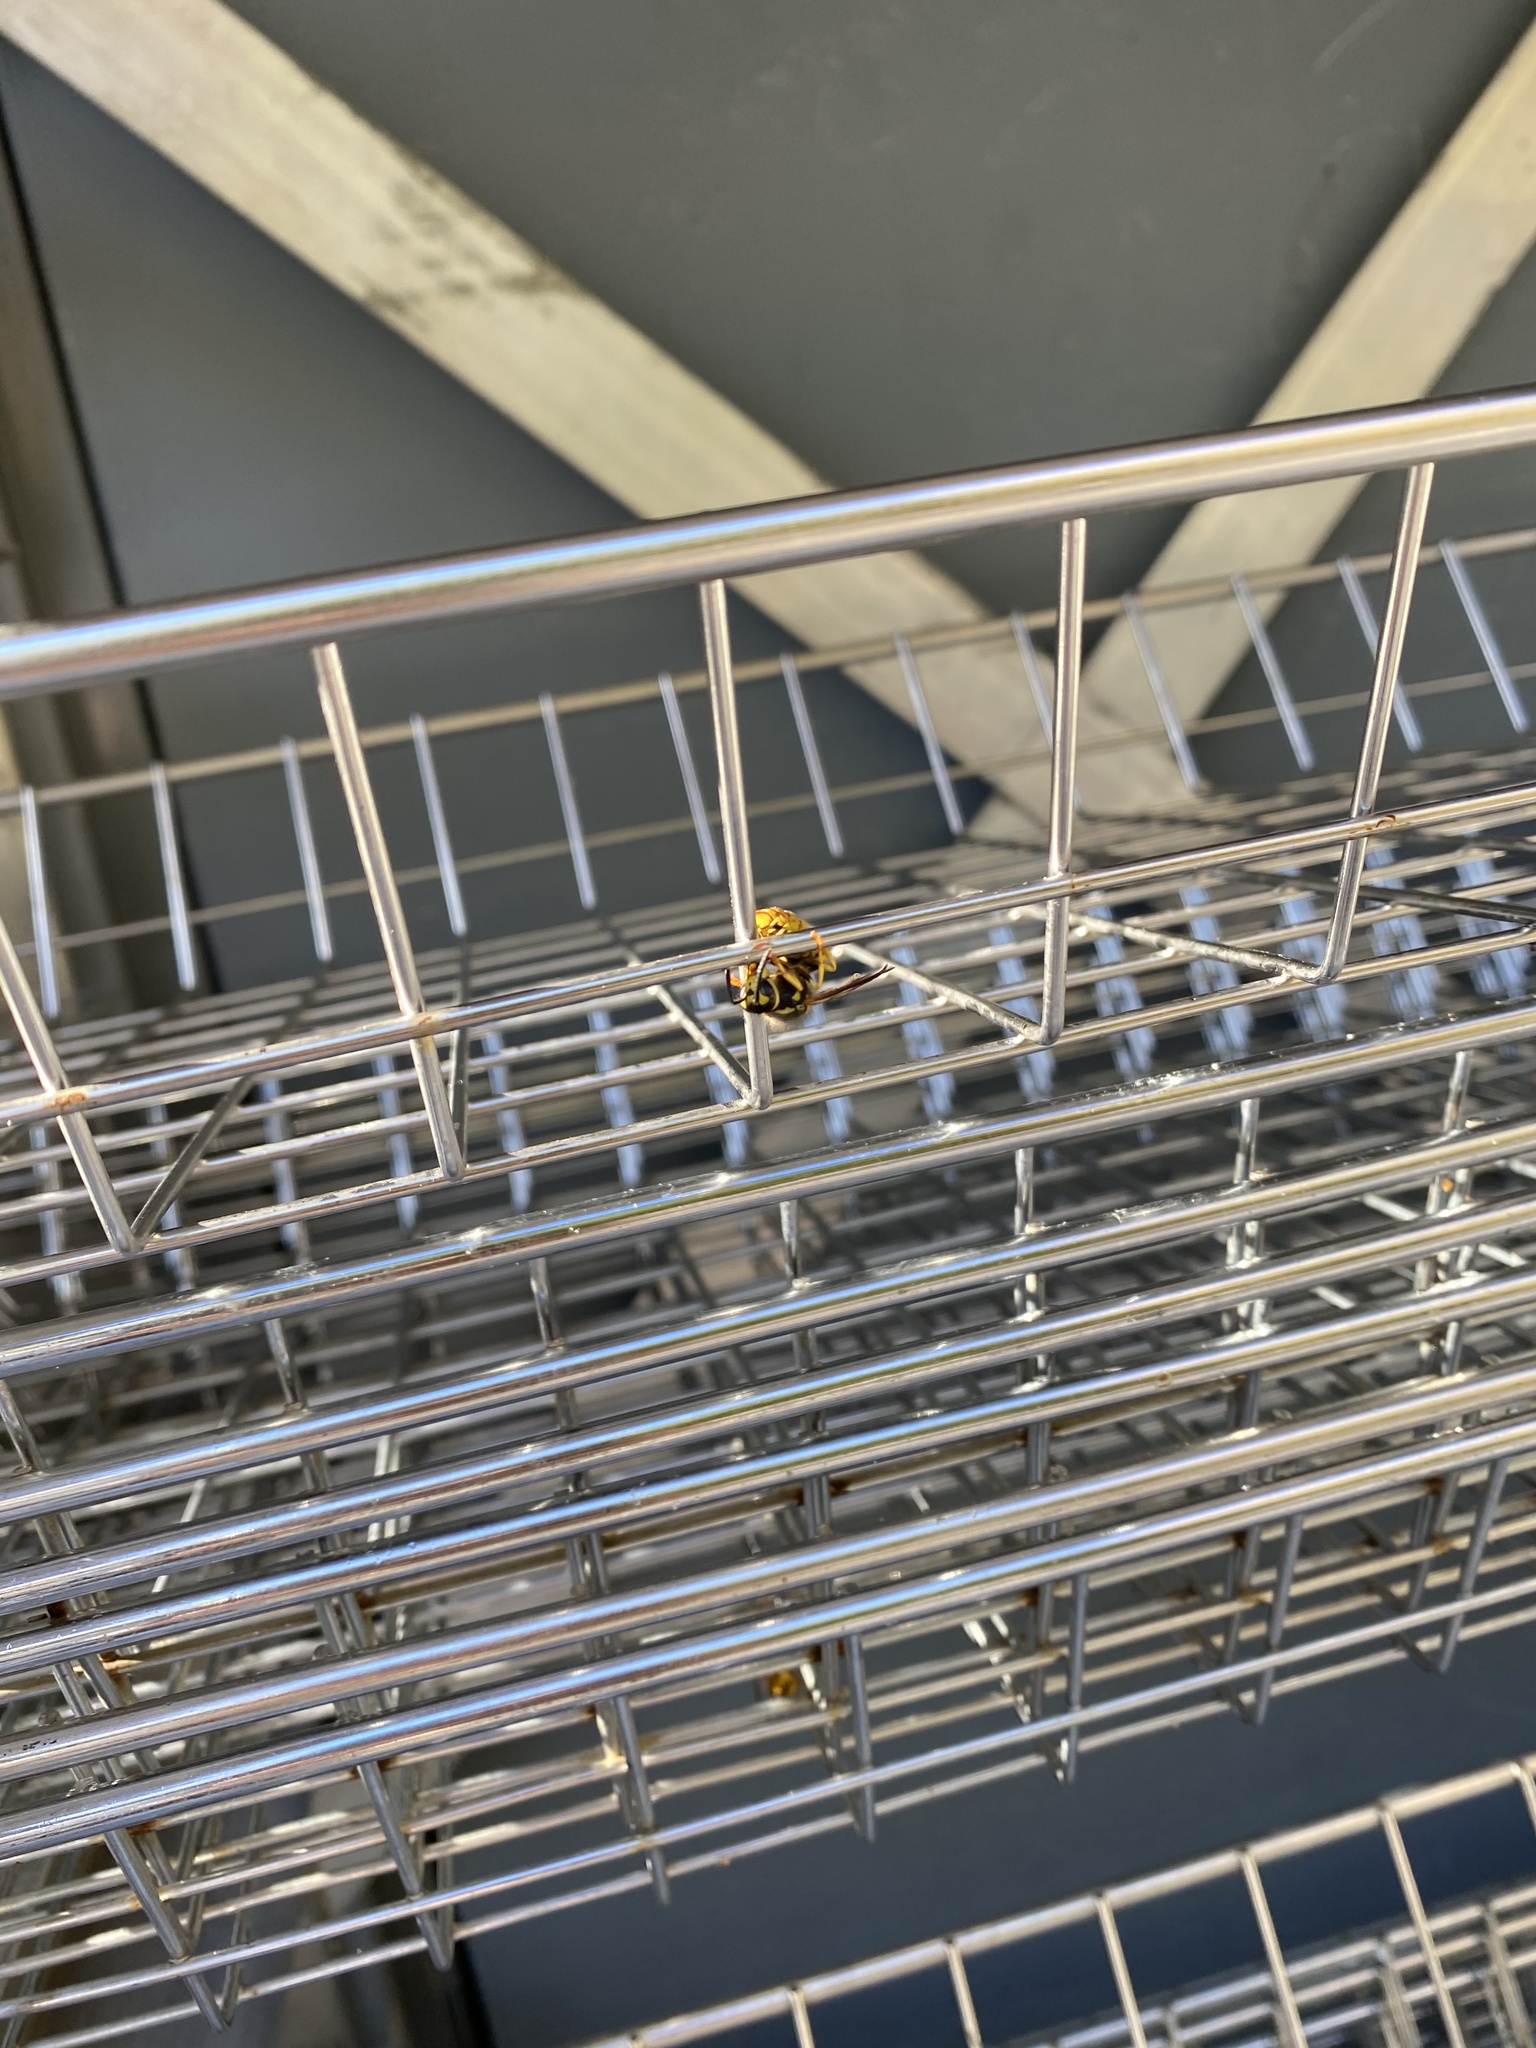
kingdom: Animalia
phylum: Arthropoda
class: Insecta
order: Hymenoptera
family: Vespidae
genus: Vespula
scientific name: Vespula
